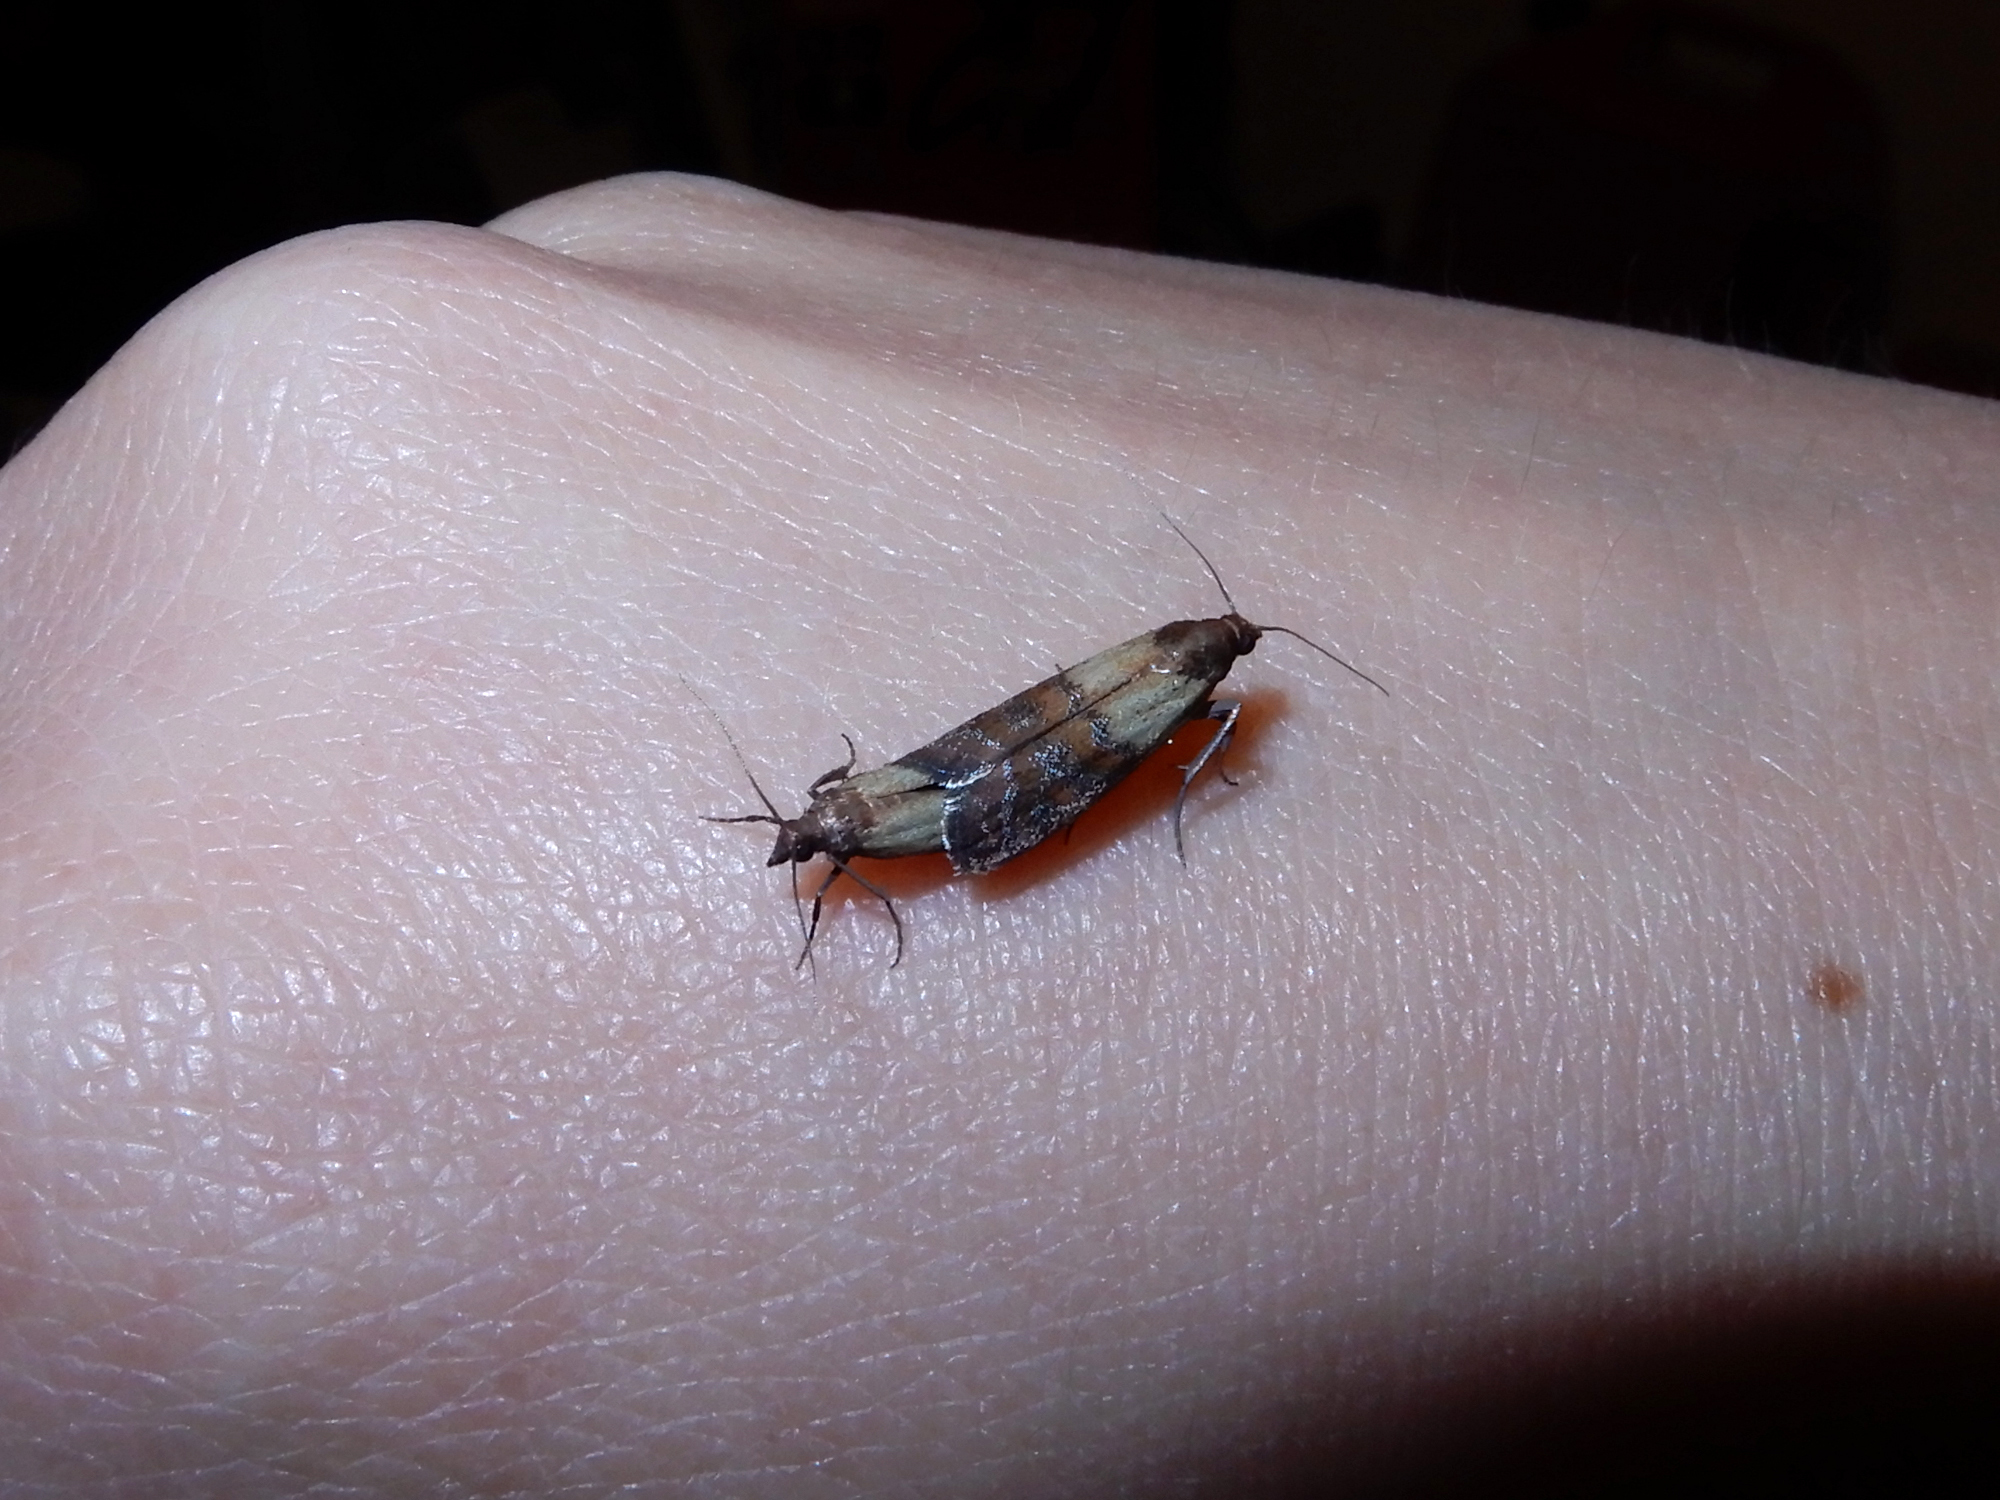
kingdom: Animalia
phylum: Arthropoda
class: Insecta
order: Lepidoptera
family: Pyralidae
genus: Plodia
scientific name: Plodia interpunctella
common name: Indian meal moth
